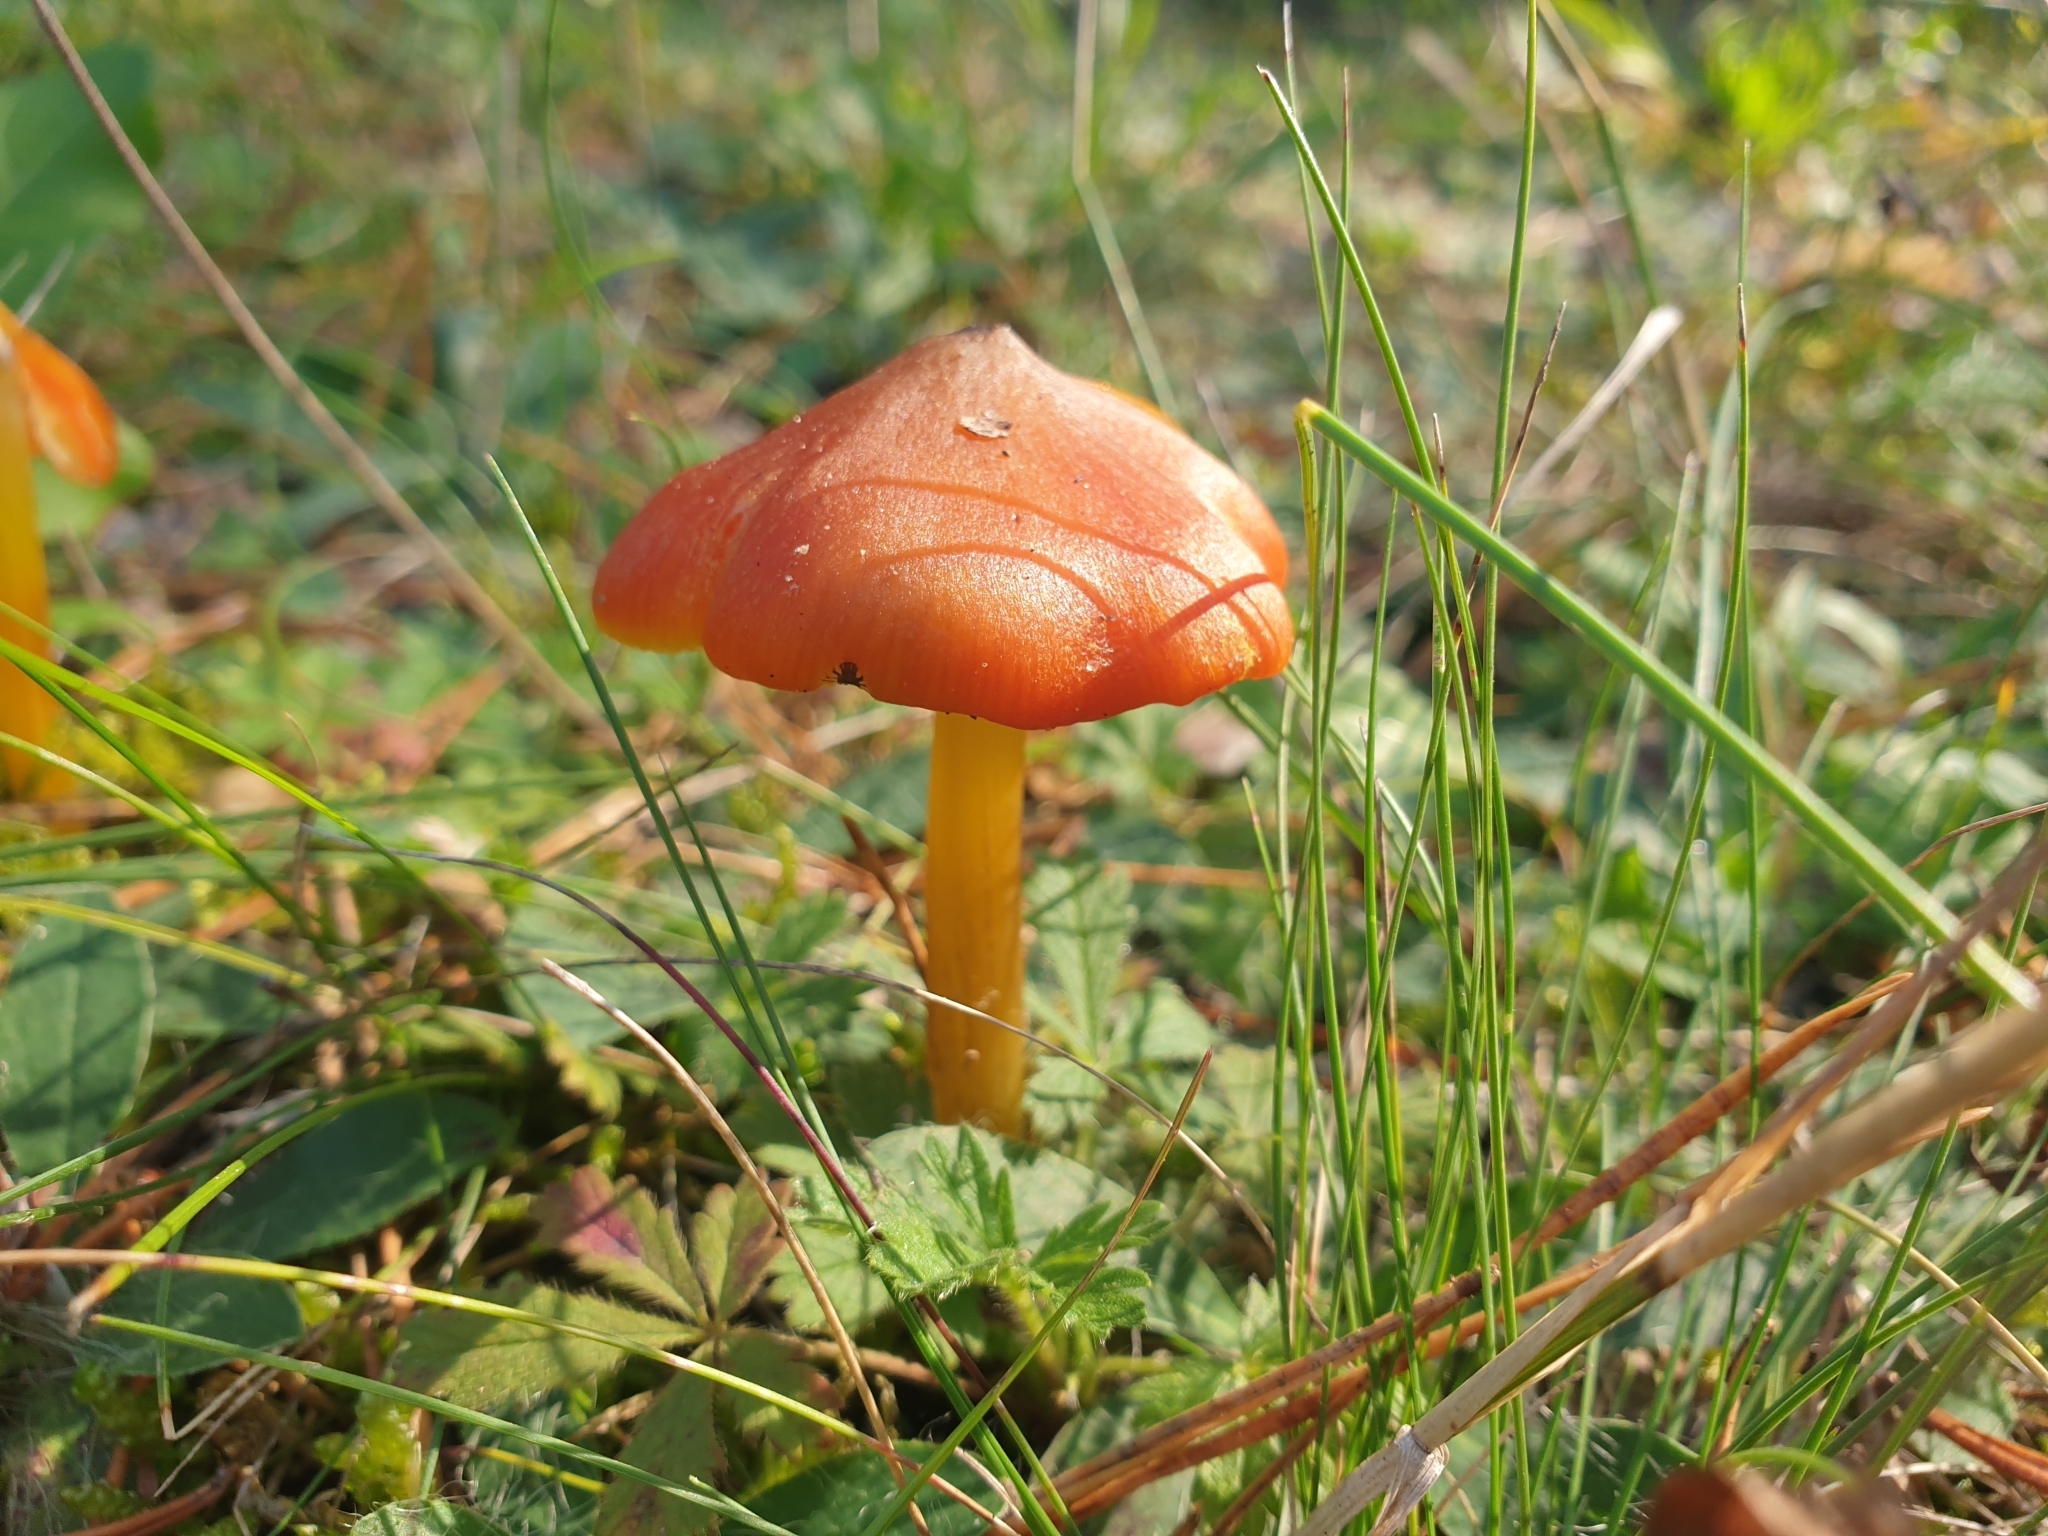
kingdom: Fungi
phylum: Basidiomycota
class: Agaricomycetes
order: Agaricales
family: Hygrophoraceae
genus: Hygrocybe
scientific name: Hygrocybe conica
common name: Blackening wax-cap
